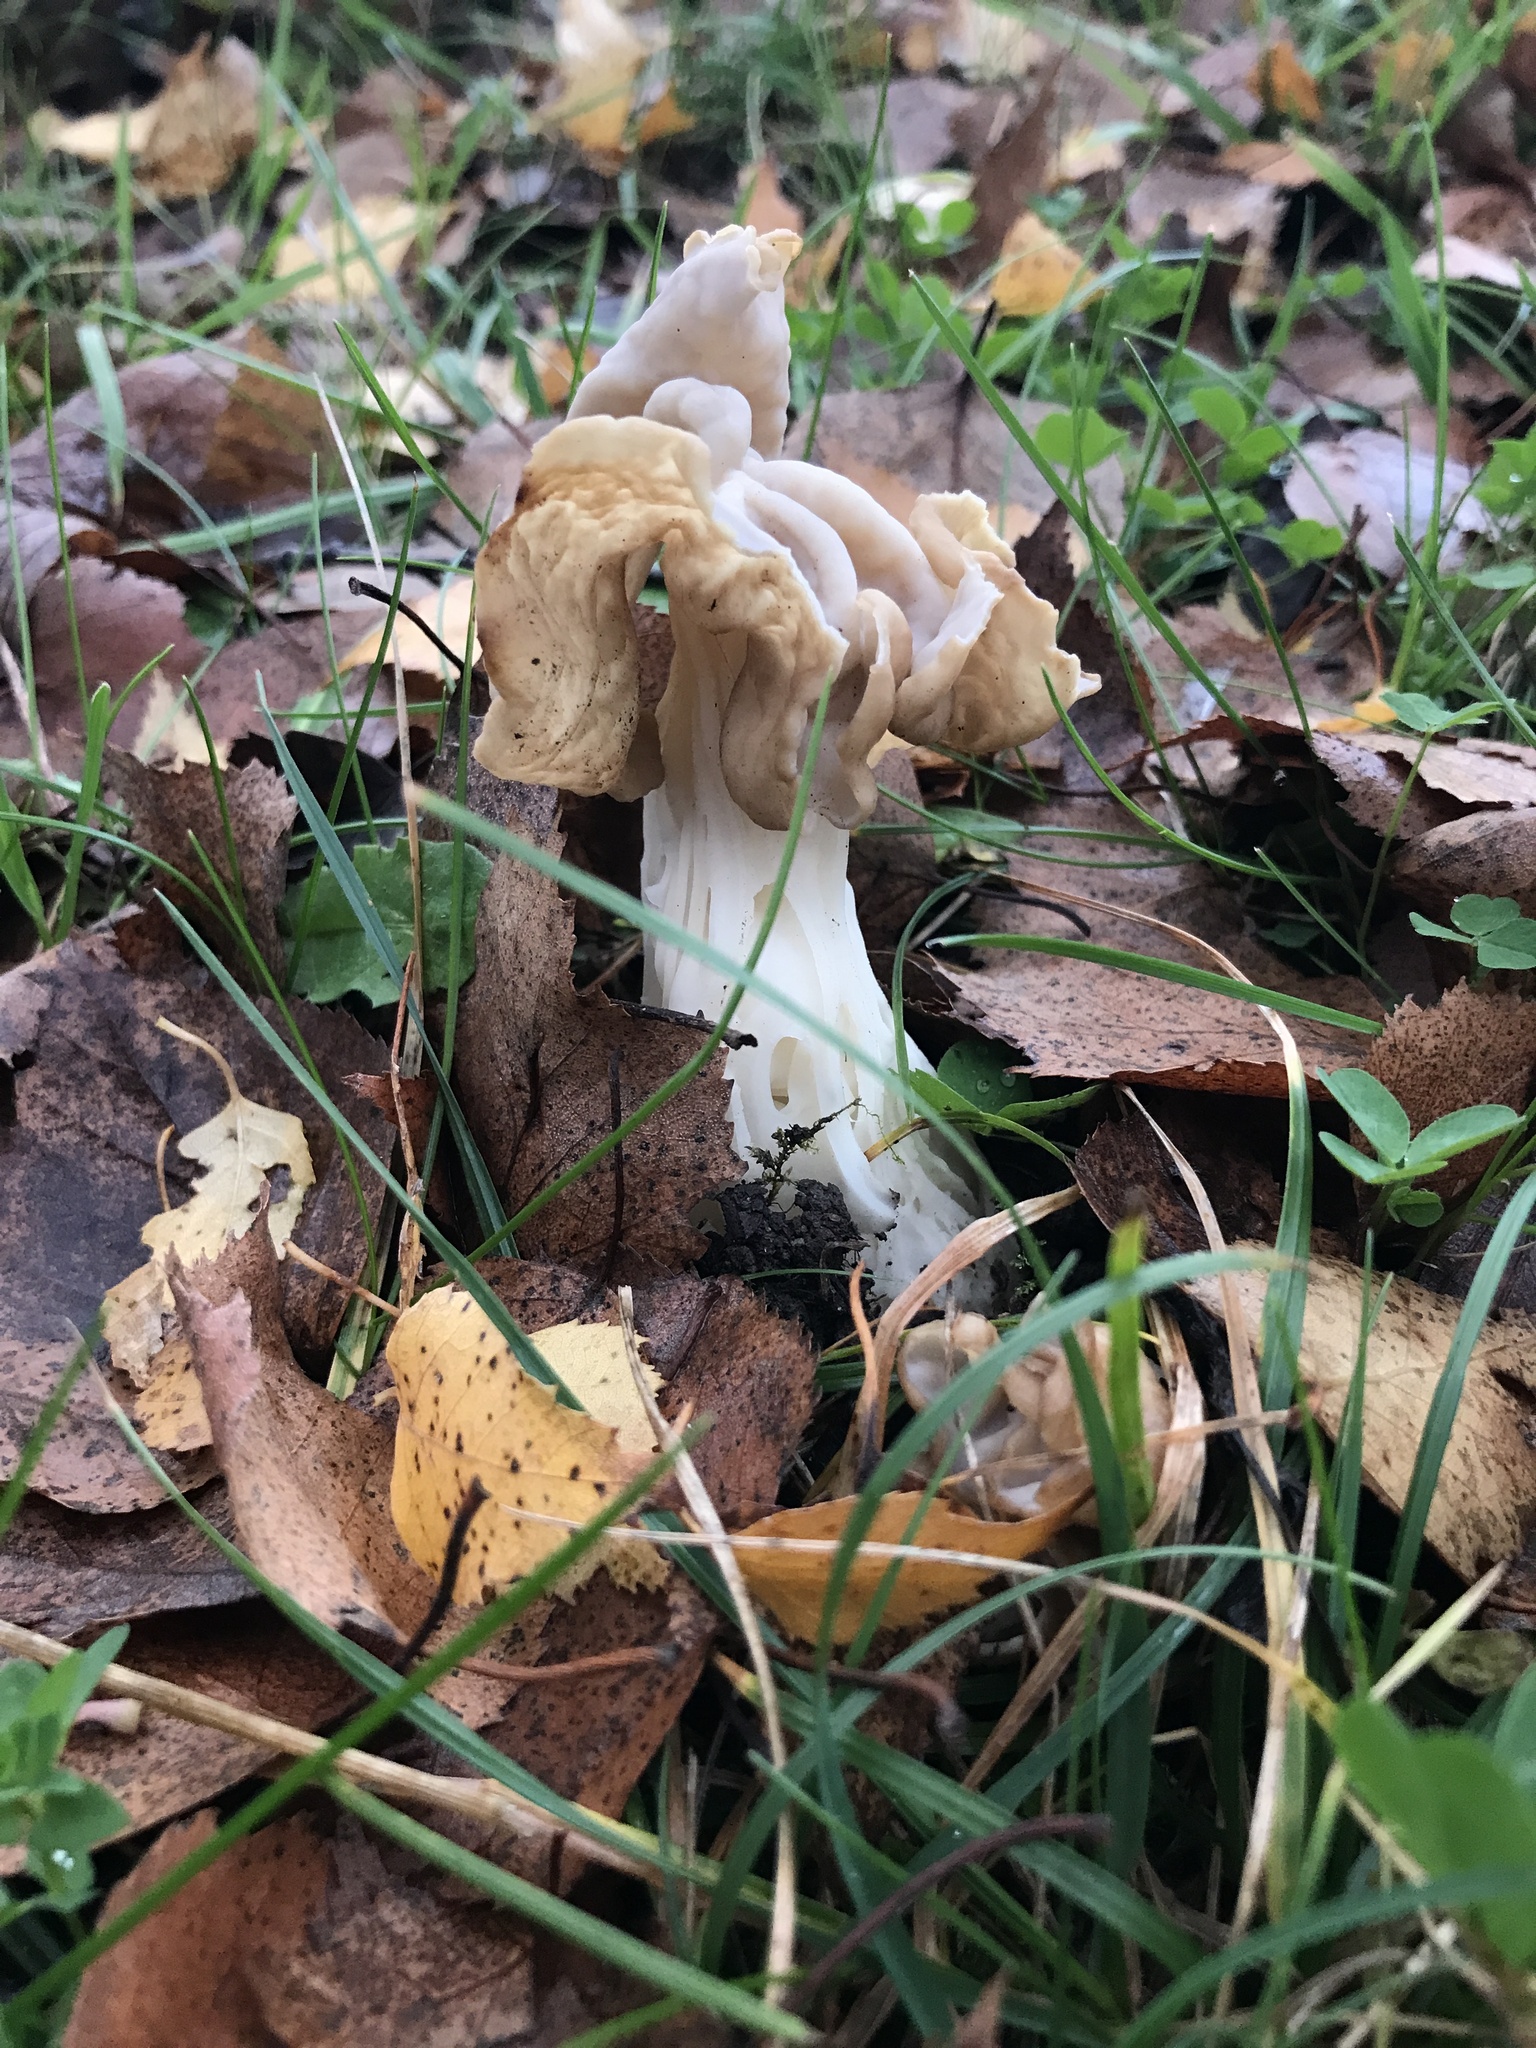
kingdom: Fungi
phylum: Ascomycota
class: Pezizomycetes
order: Pezizales
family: Helvellaceae
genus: Helvella
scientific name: Helvella crispa
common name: White saddle
